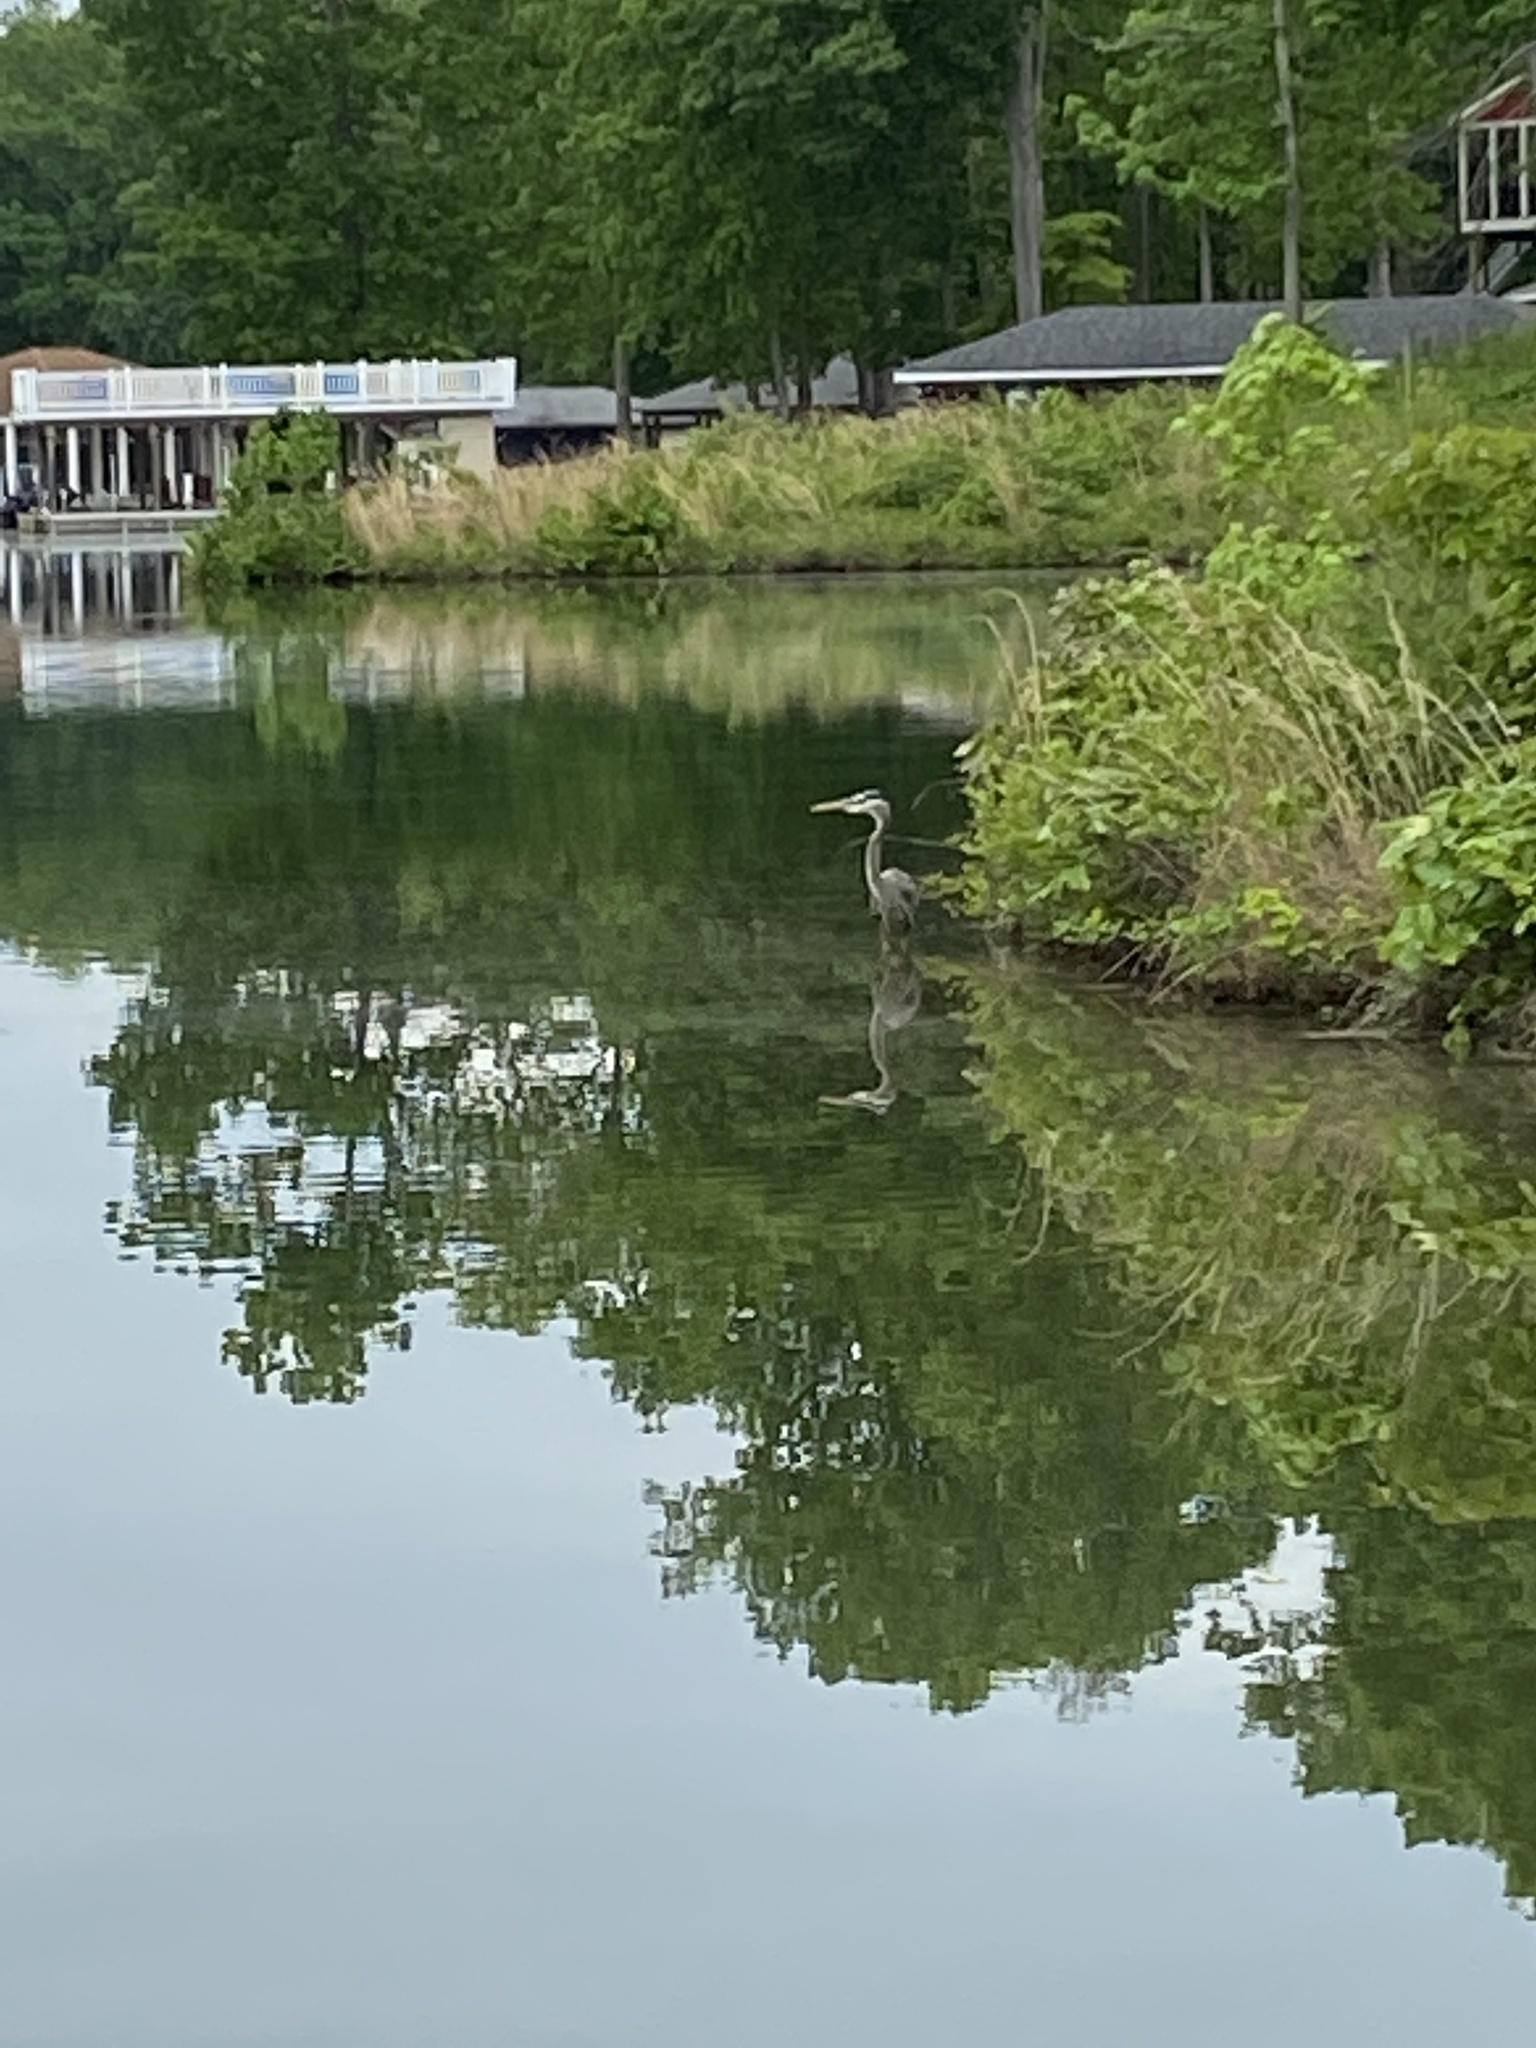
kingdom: Animalia
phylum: Chordata
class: Aves
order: Pelecaniformes
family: Ardeidae
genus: Ardea
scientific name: Ardea herodias
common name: Great blue heron
